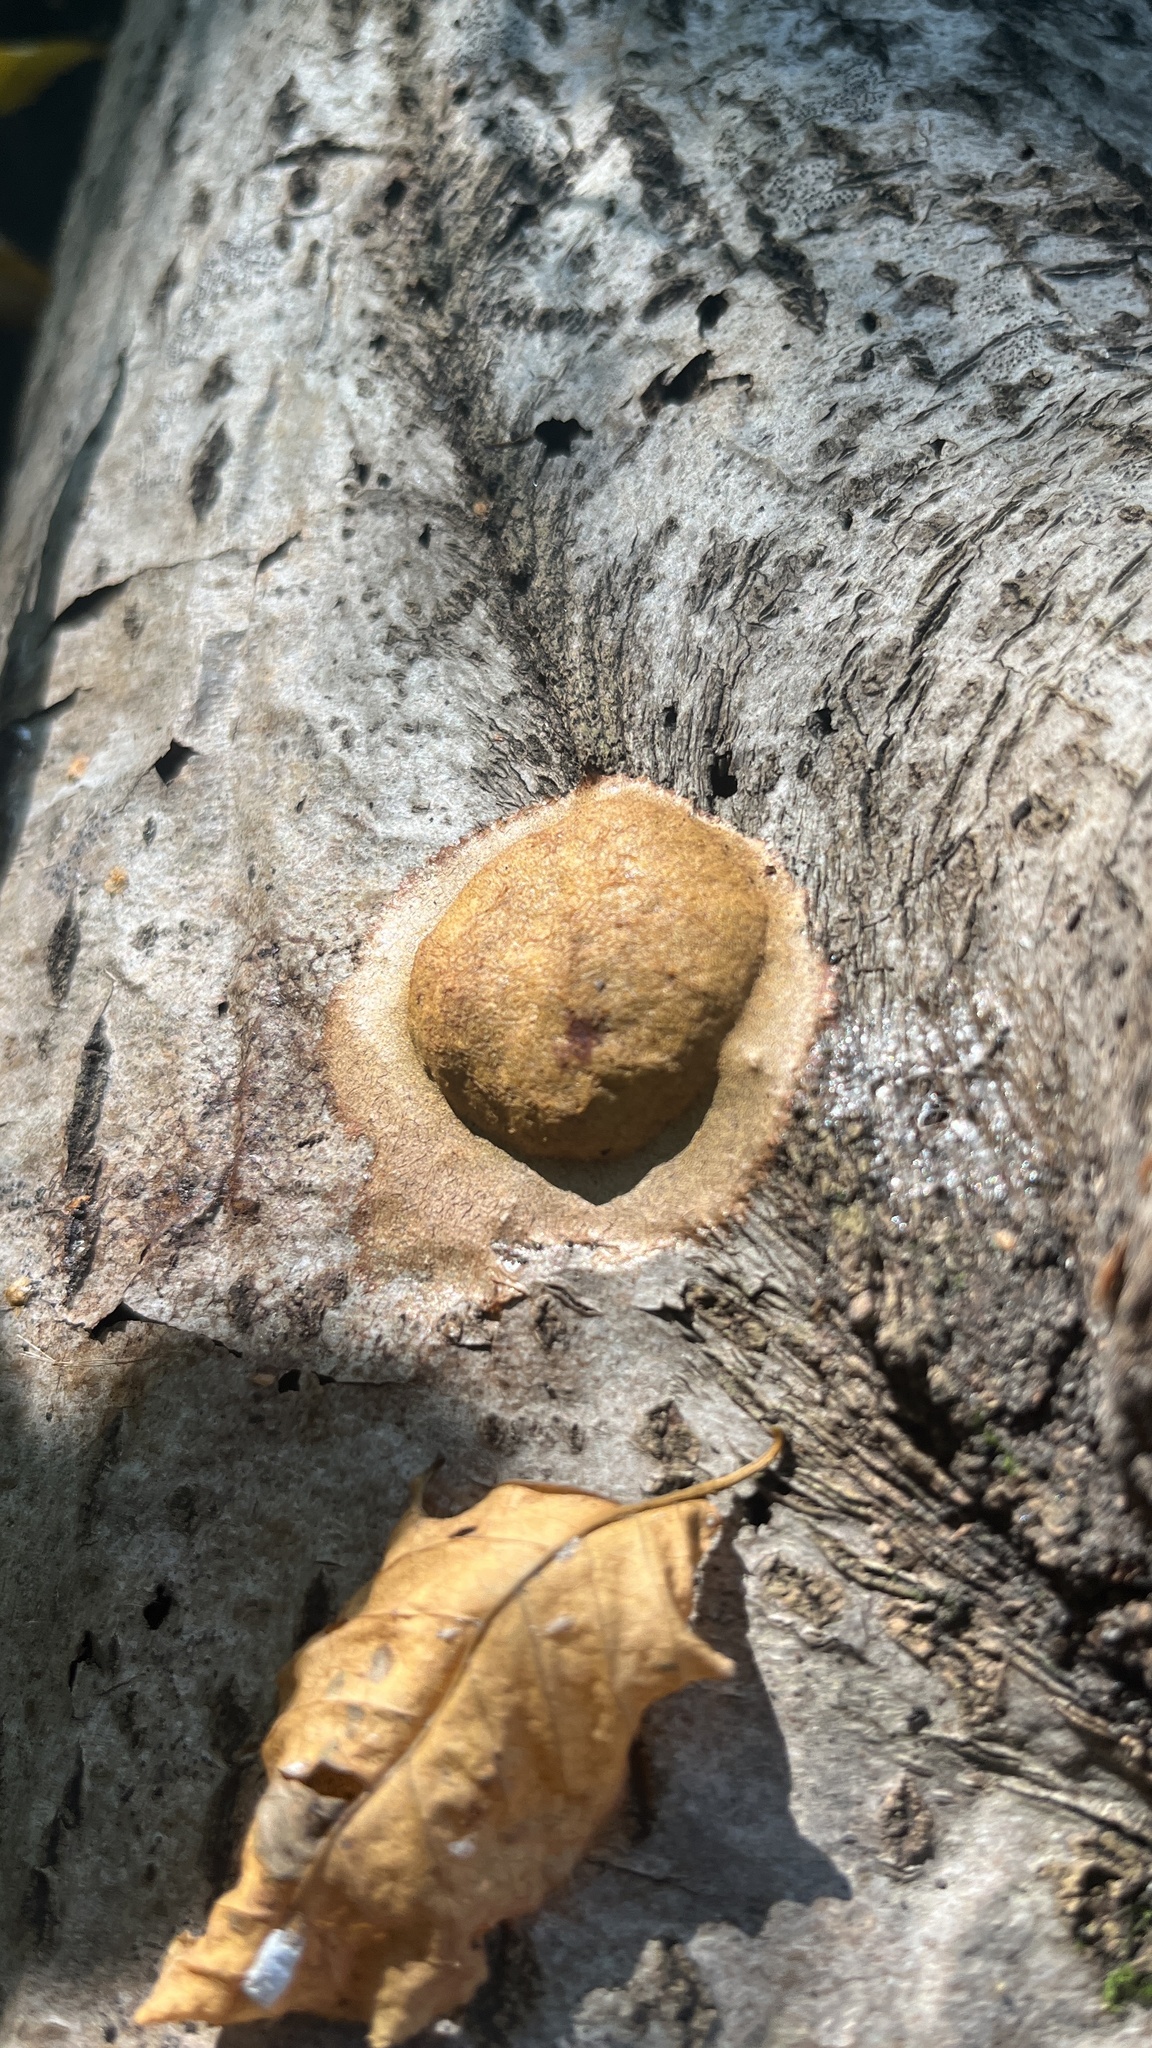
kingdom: Protozoa
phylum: Mycetozoa
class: Myxomycetes
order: Physarales
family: Physaraceae
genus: Fuligo
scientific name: Fuligo leviderma
